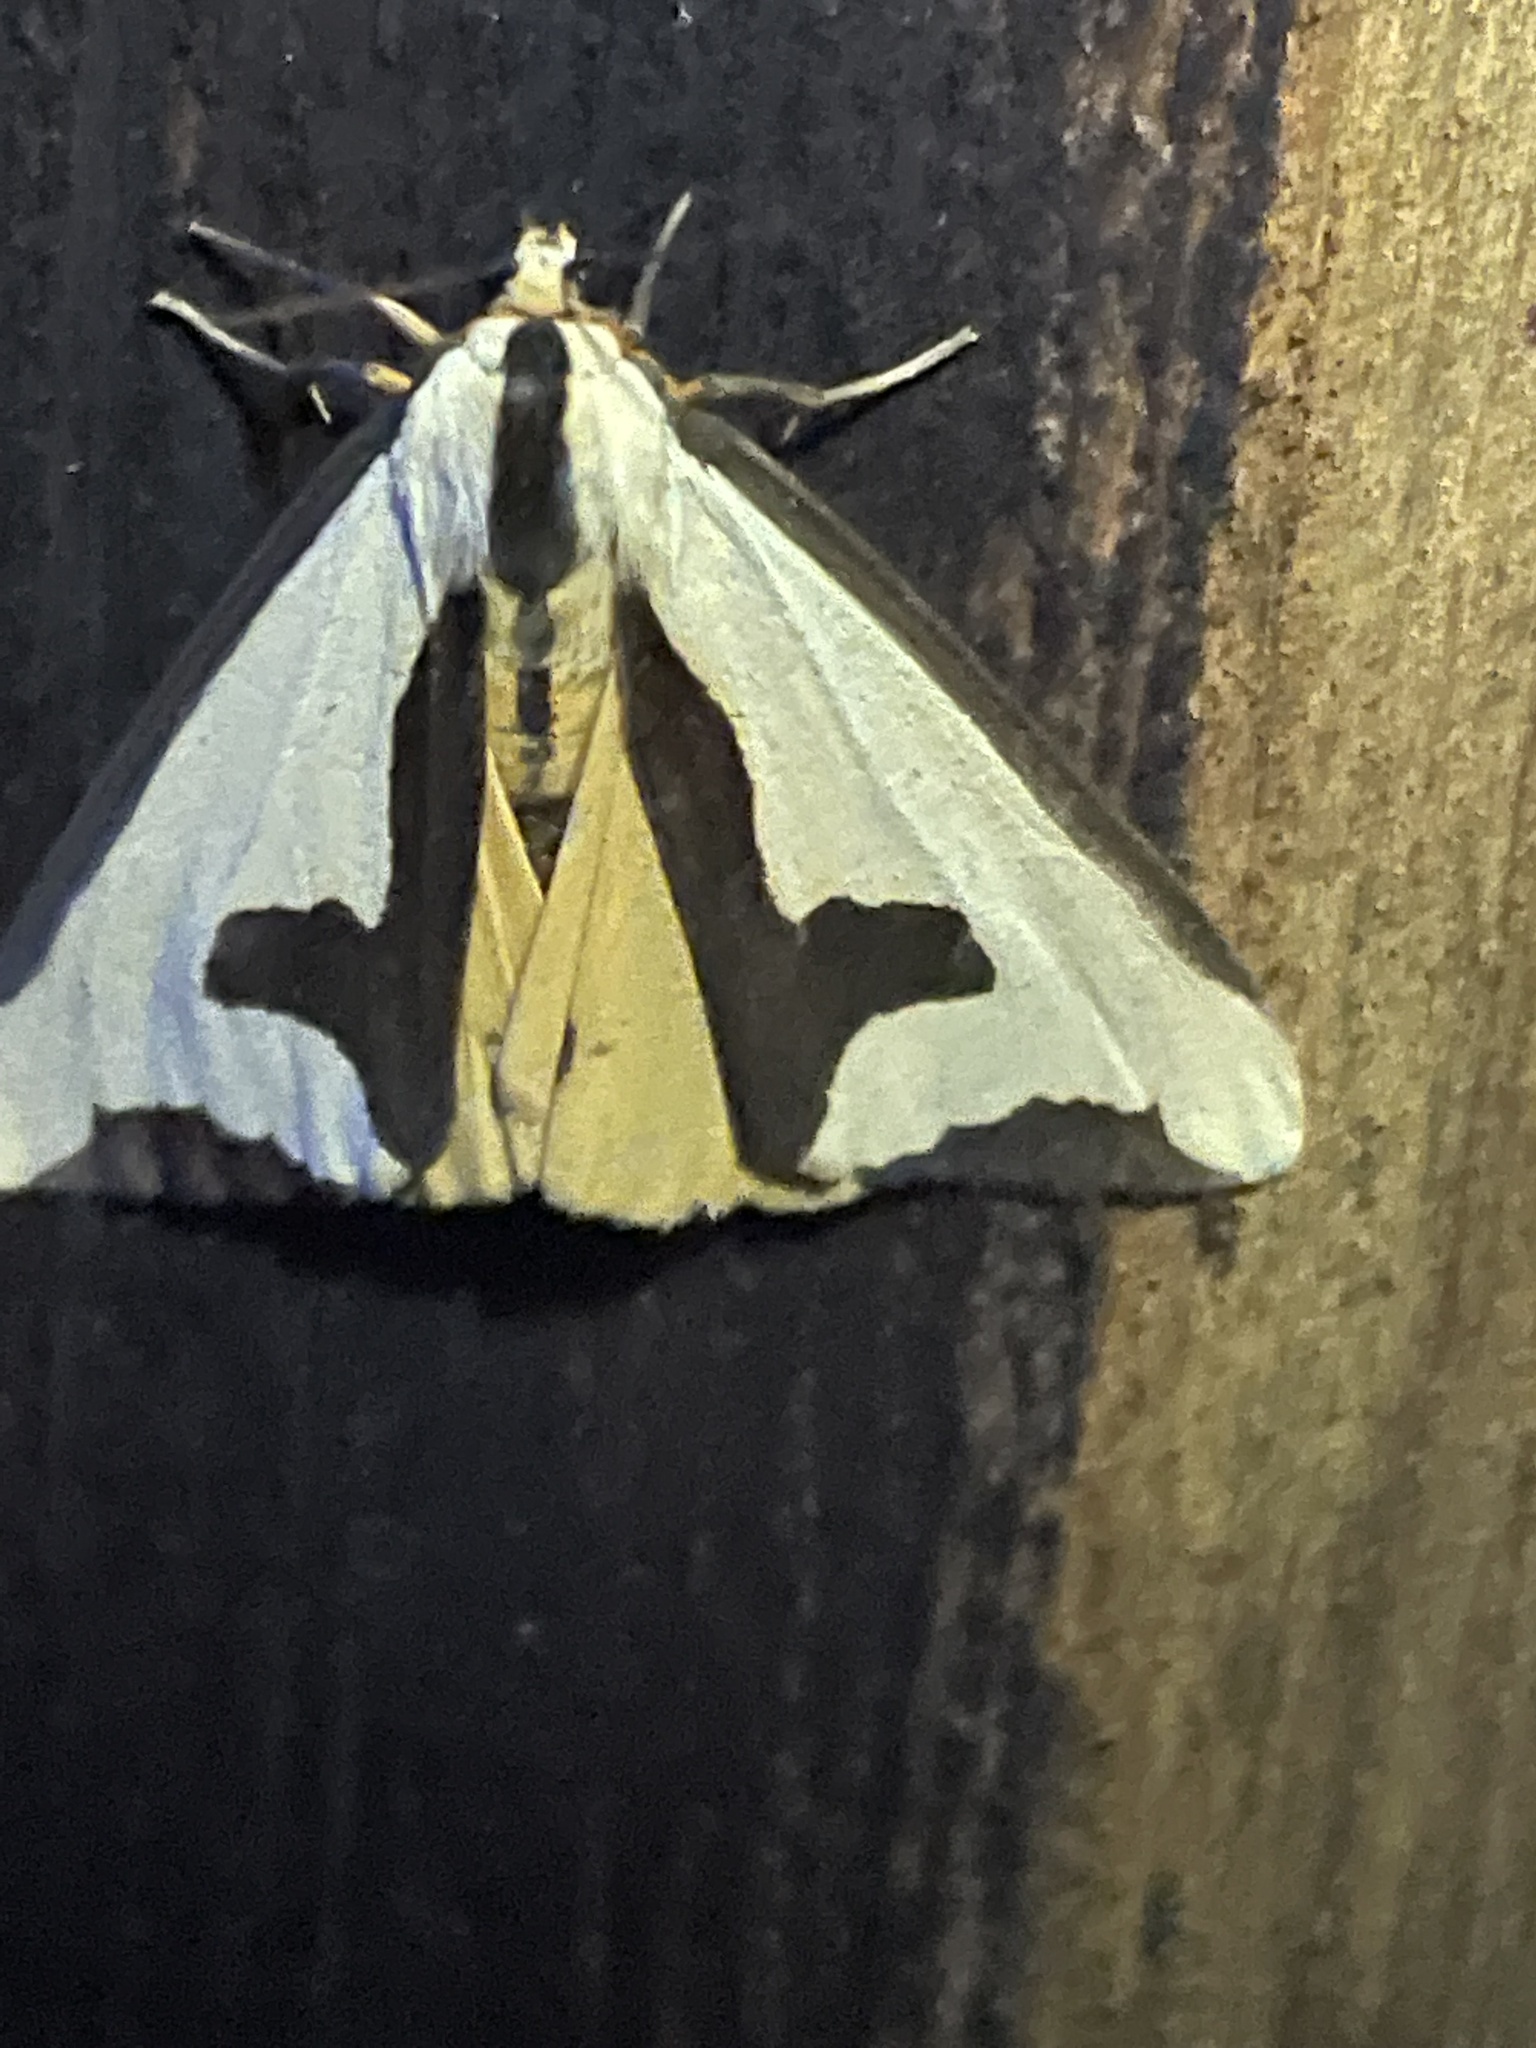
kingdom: Animalia
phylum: Arthropoda
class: Insecta
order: Lepidoptera
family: Erebidae
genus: Haploa
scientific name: Haploa clymene
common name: Clymene moth
